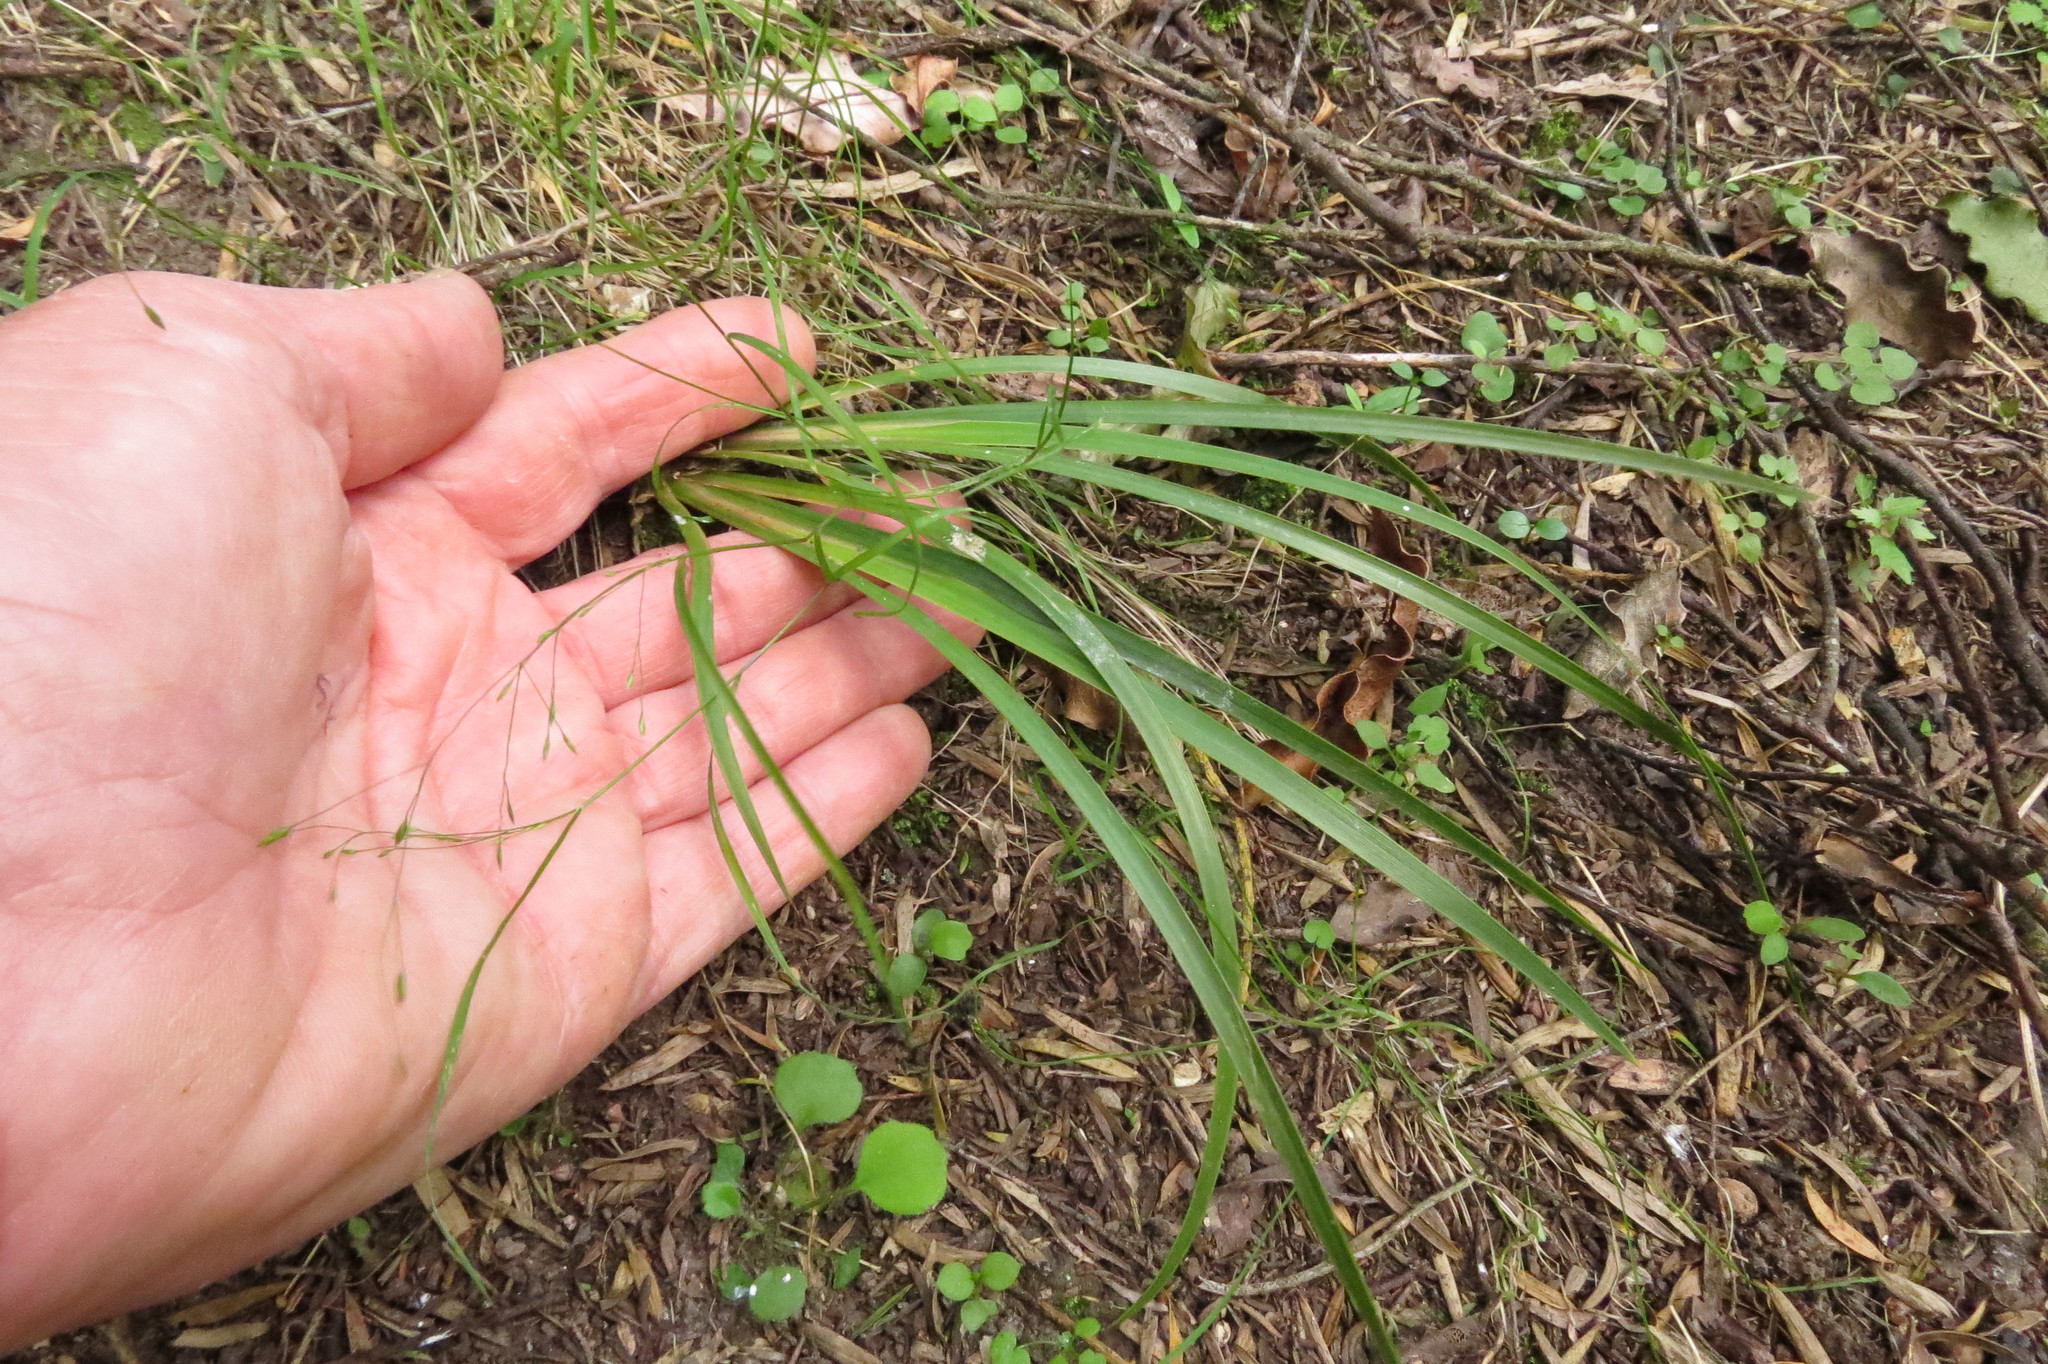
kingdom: Plantae
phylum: Tracheophyta
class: Liliopsida
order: Asparagales
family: Iridaceae
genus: Libertia
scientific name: Libertia ixioides
